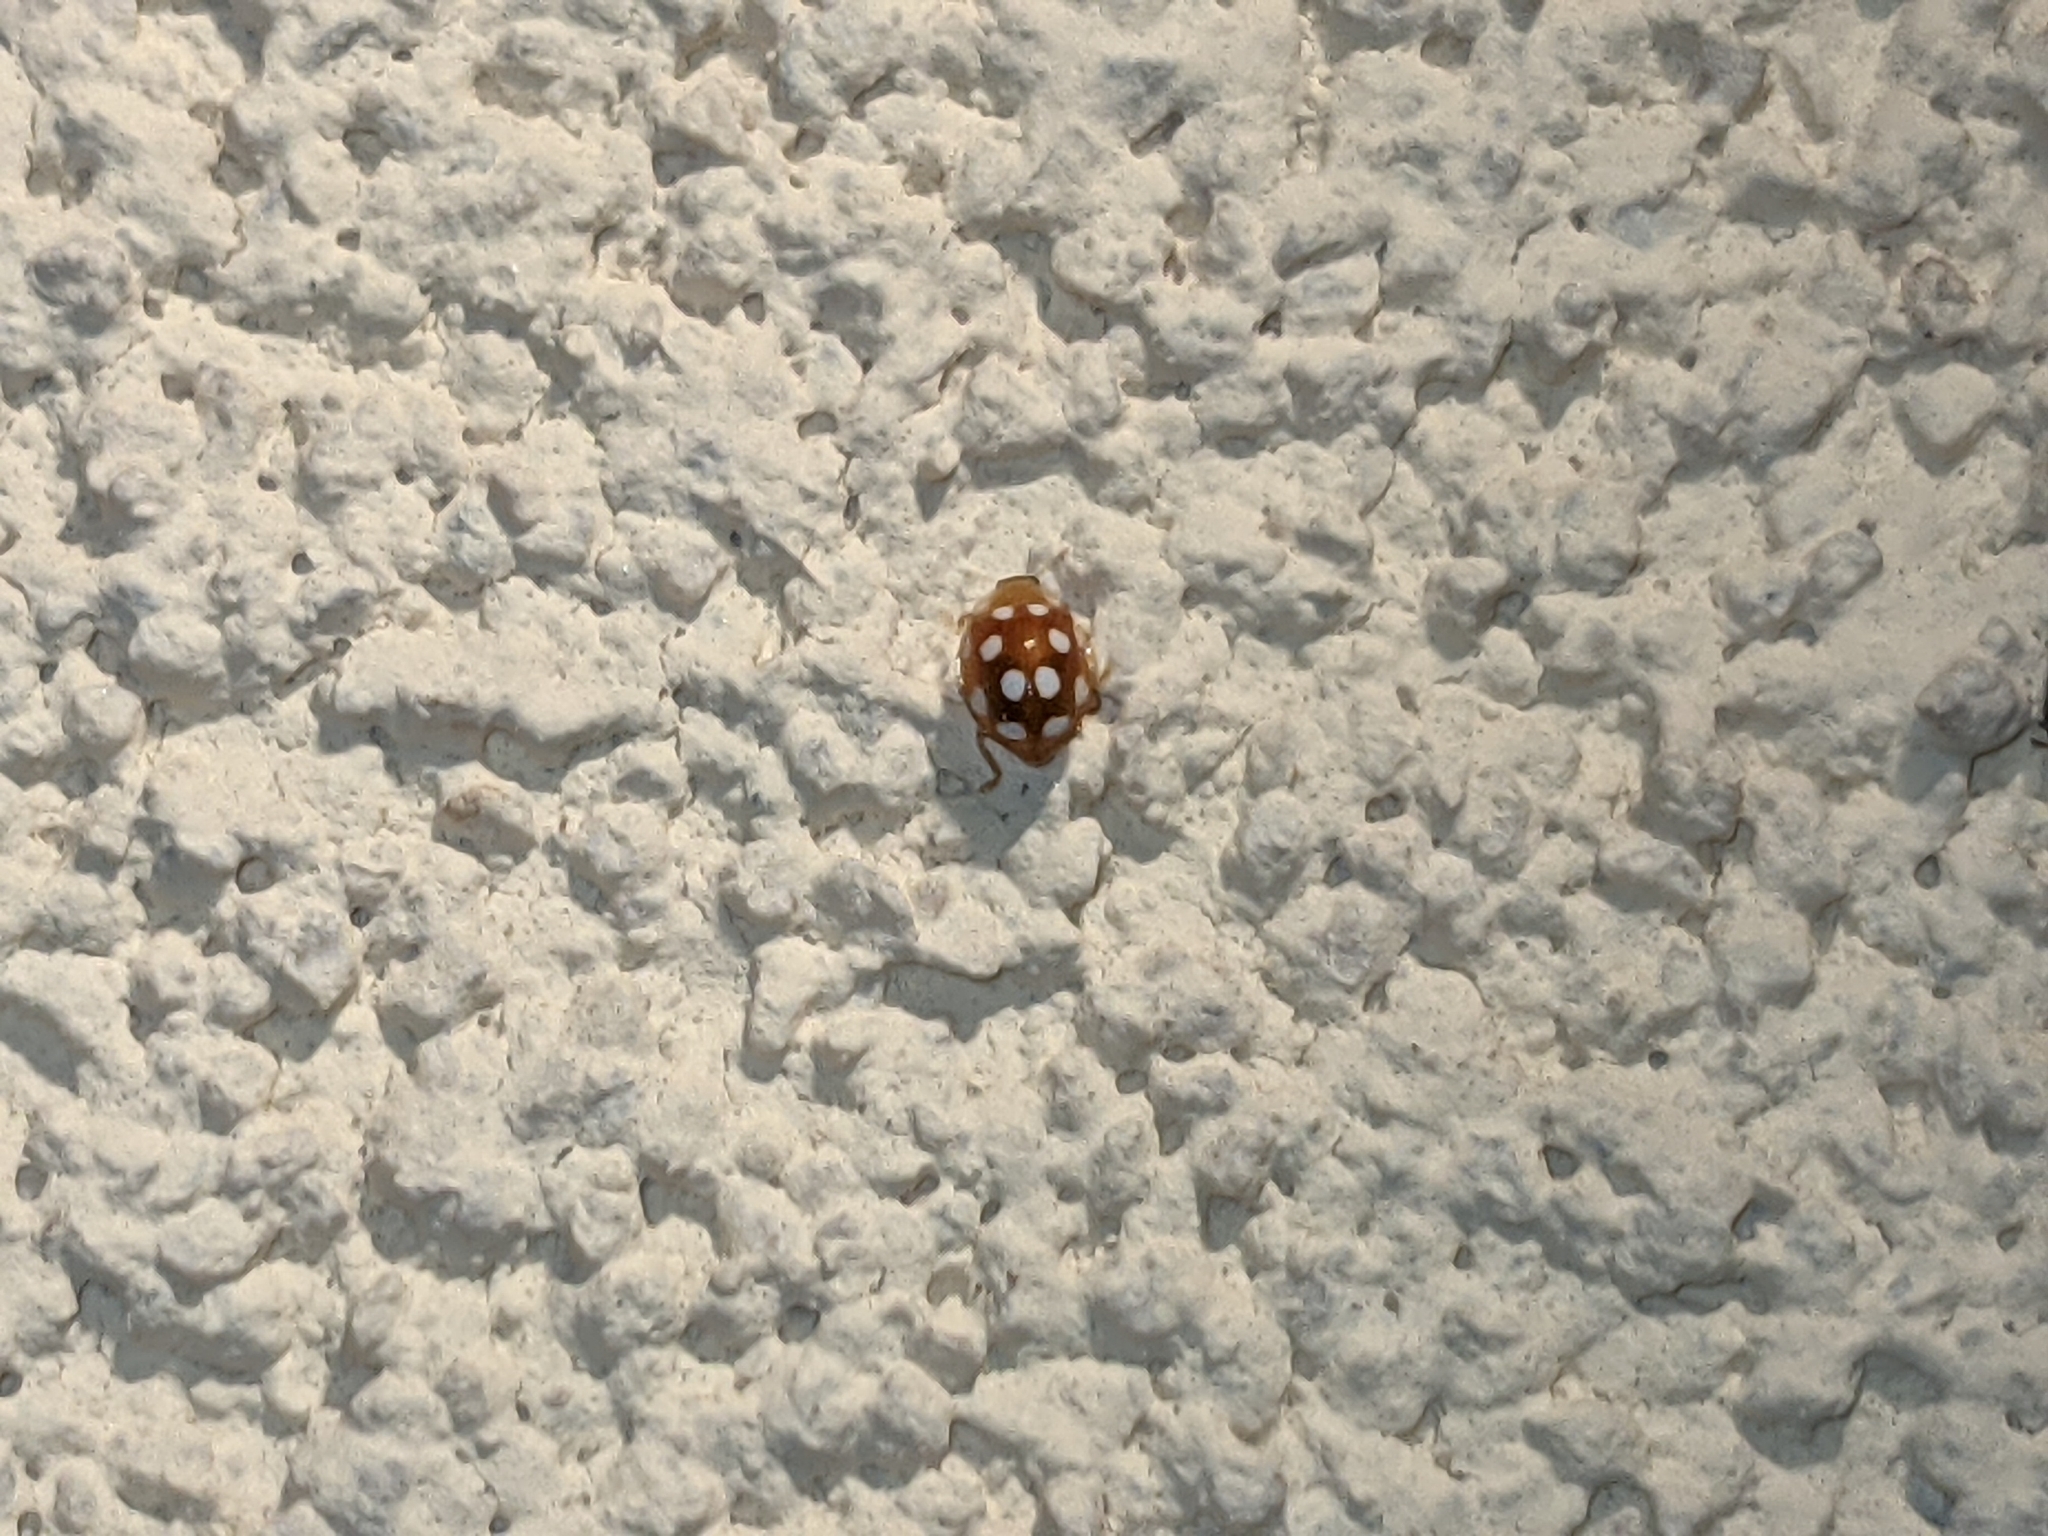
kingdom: Animalia
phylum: Arthropoda
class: Insecta
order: Coleoptera
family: Coccinellidae
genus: Vibidia
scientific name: Vibidia duodecimguttata
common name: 12-spot ladybird
